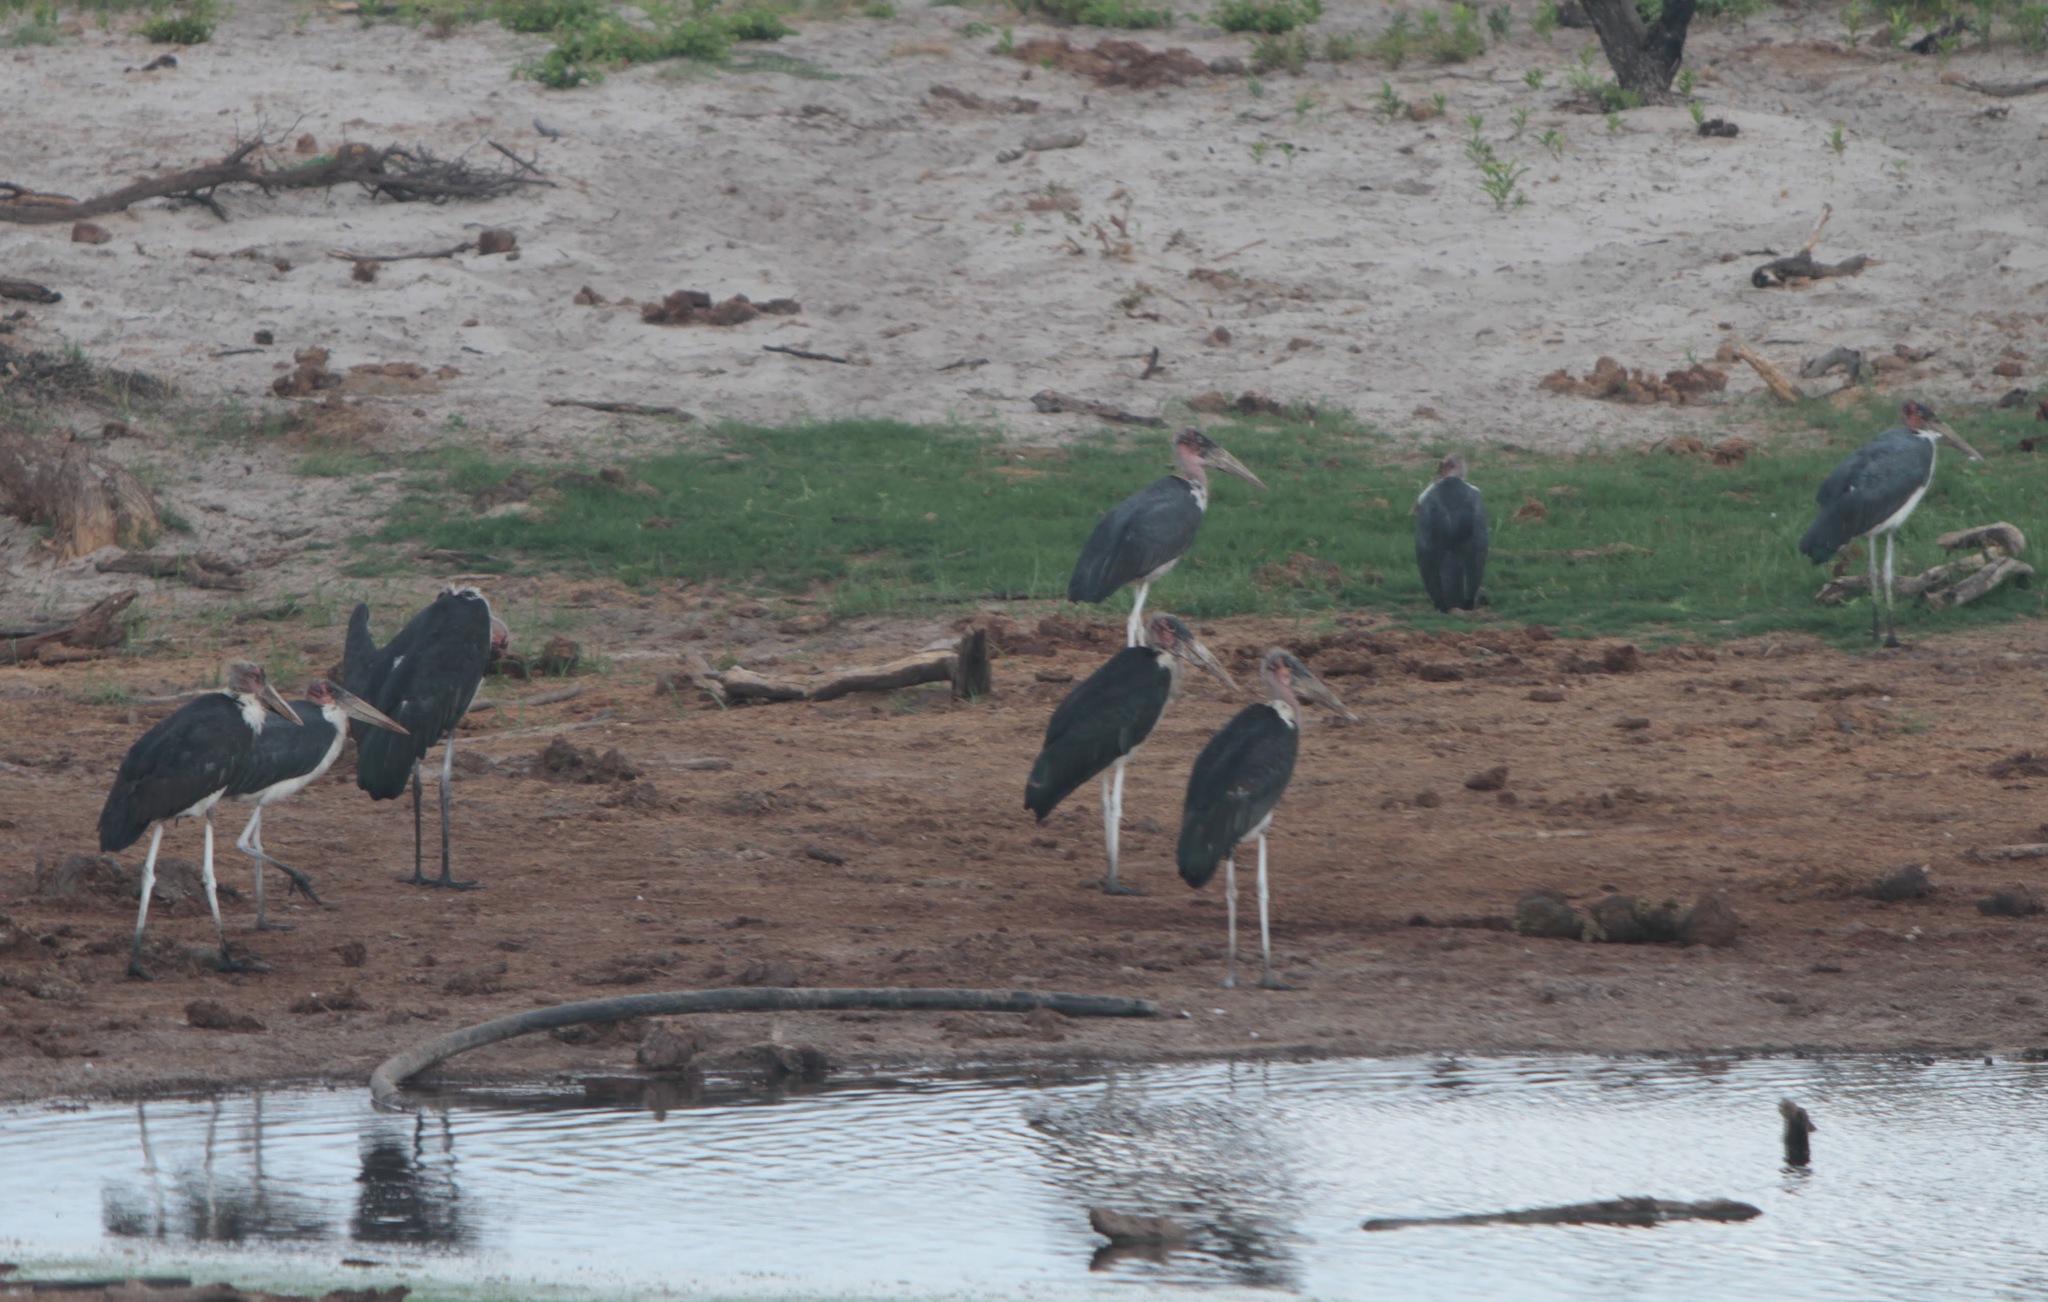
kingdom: Animalia
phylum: Chordata
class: Aves
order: Ciconiiformes
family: Ciconiidae
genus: Leptoptilos
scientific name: Leptoptilos crumenifer
